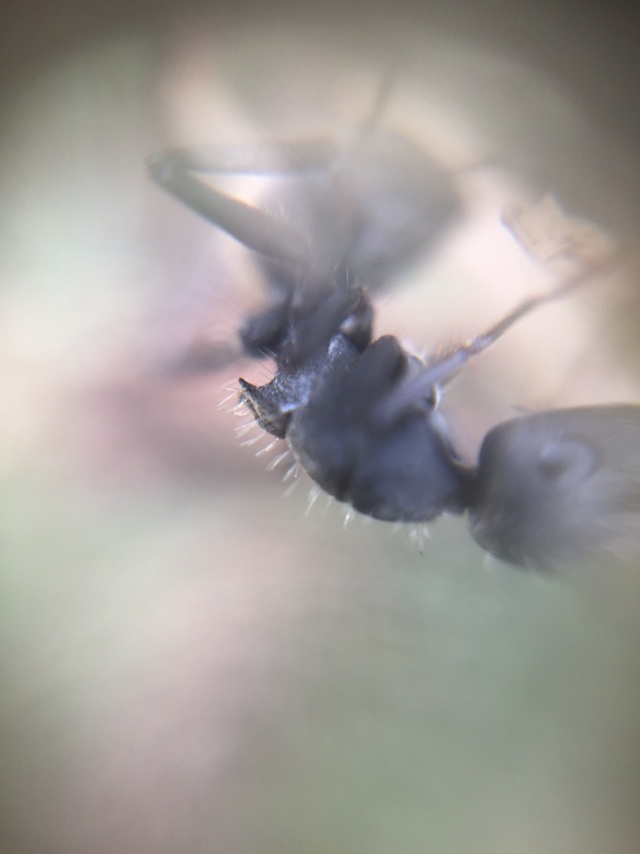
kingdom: Animalia
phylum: Arthropoda
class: Insecta
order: Hymenoptera
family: Formicidae
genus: Camponotus
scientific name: Camponotus sericeus
